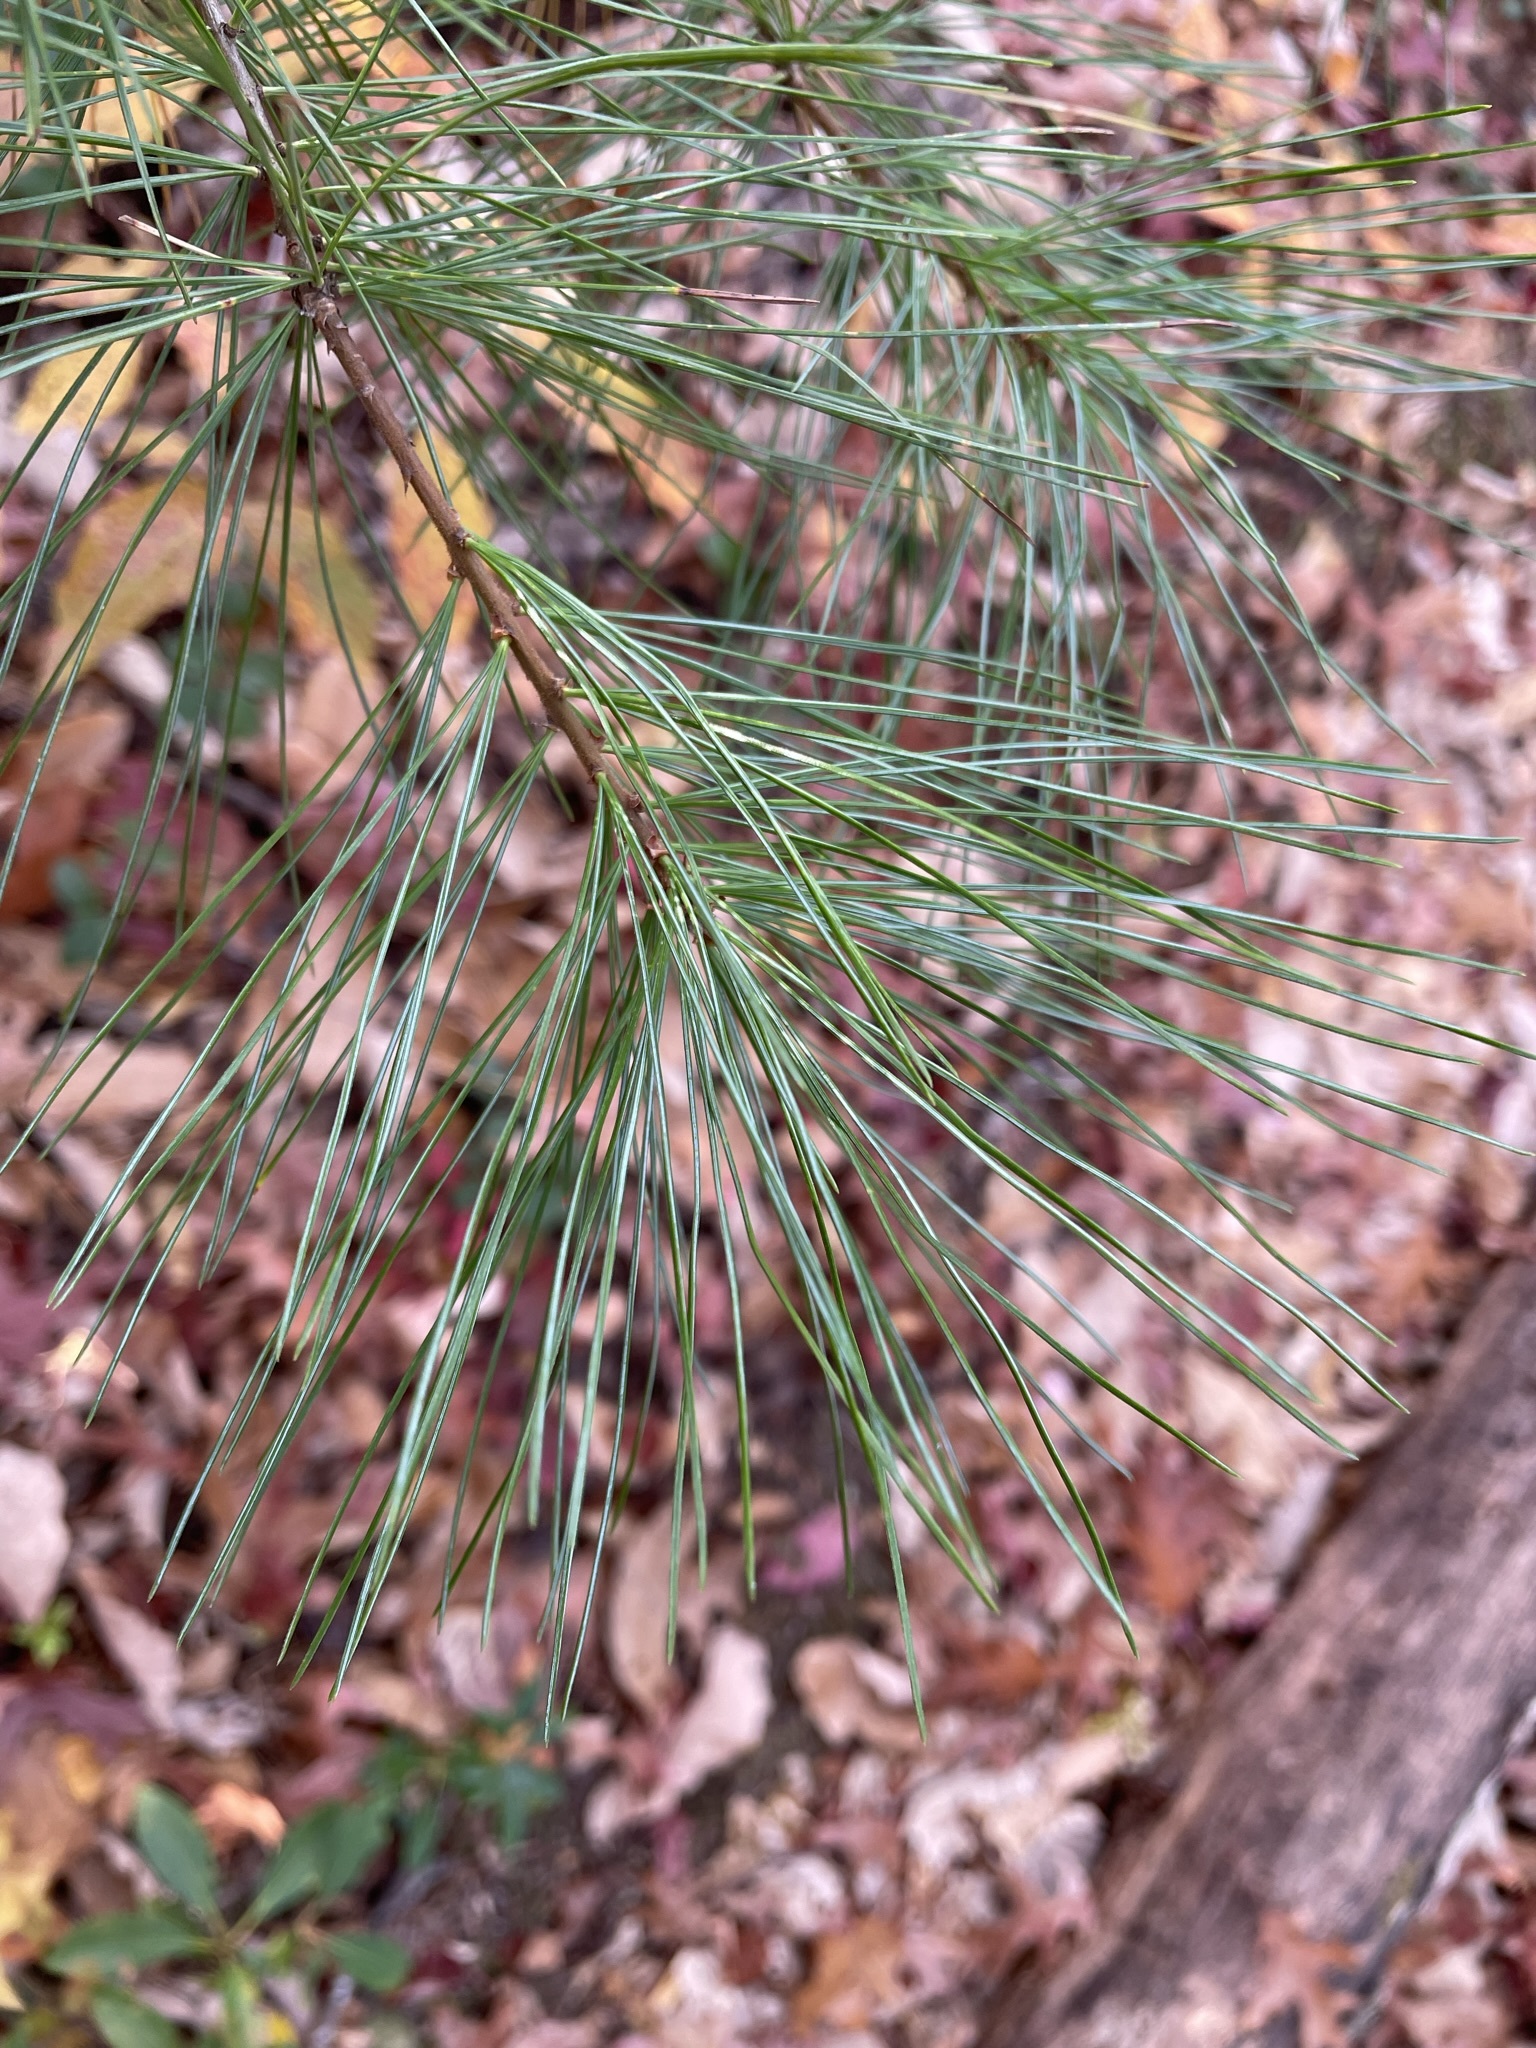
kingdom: Plantae
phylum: Tracheophyta
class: Pinopsida
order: Pinales
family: Pinaceae
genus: Pinus
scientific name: Pinus strobus
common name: Weymouth pine
